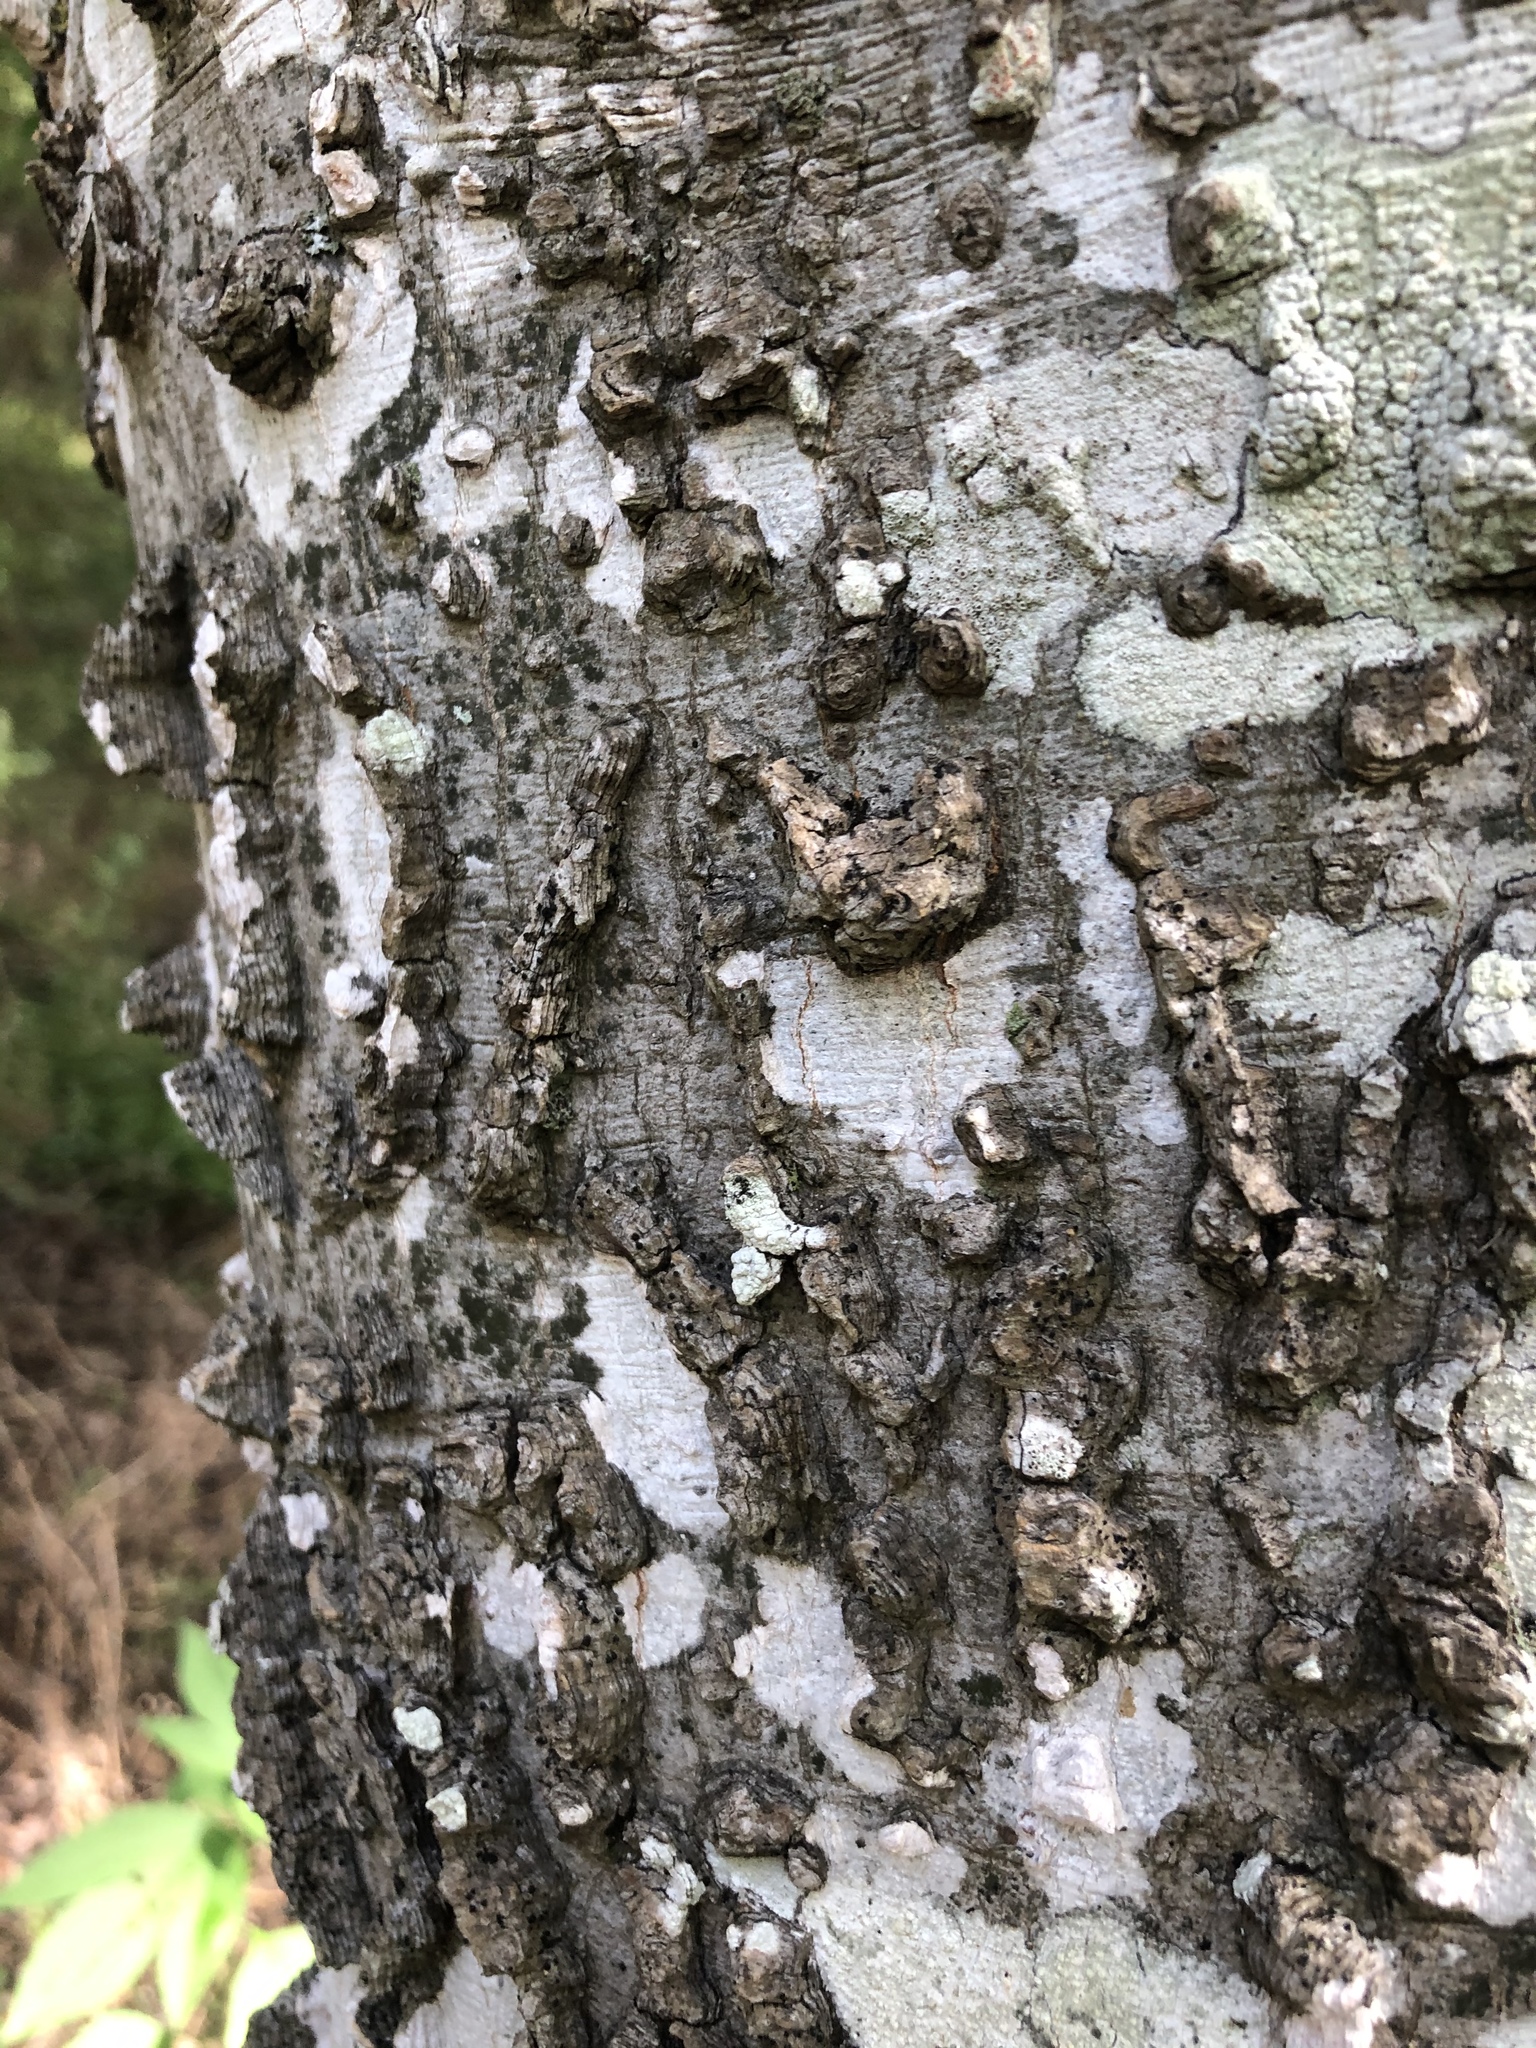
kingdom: Plantae
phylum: Tracheophyta
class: Magnoliopsida
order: Rosales
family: Cannabaceae
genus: Celtis
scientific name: Celtis laevigata
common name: Sugarberry
